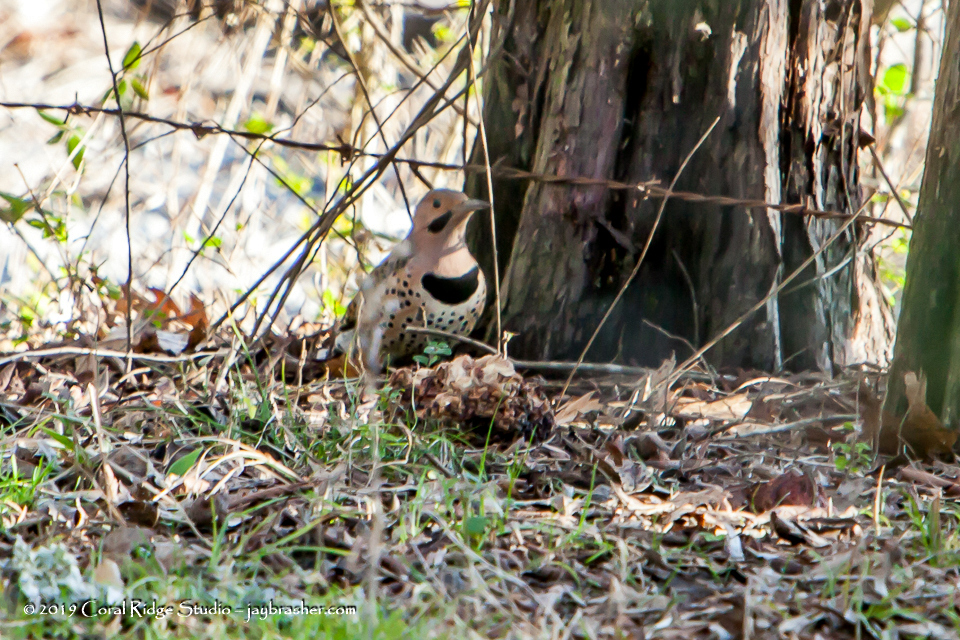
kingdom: Animalia
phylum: Chordata
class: Aves
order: Piciformes
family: Picidae
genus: Colaptes
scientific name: Colaptes auratus
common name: Northern flicker
